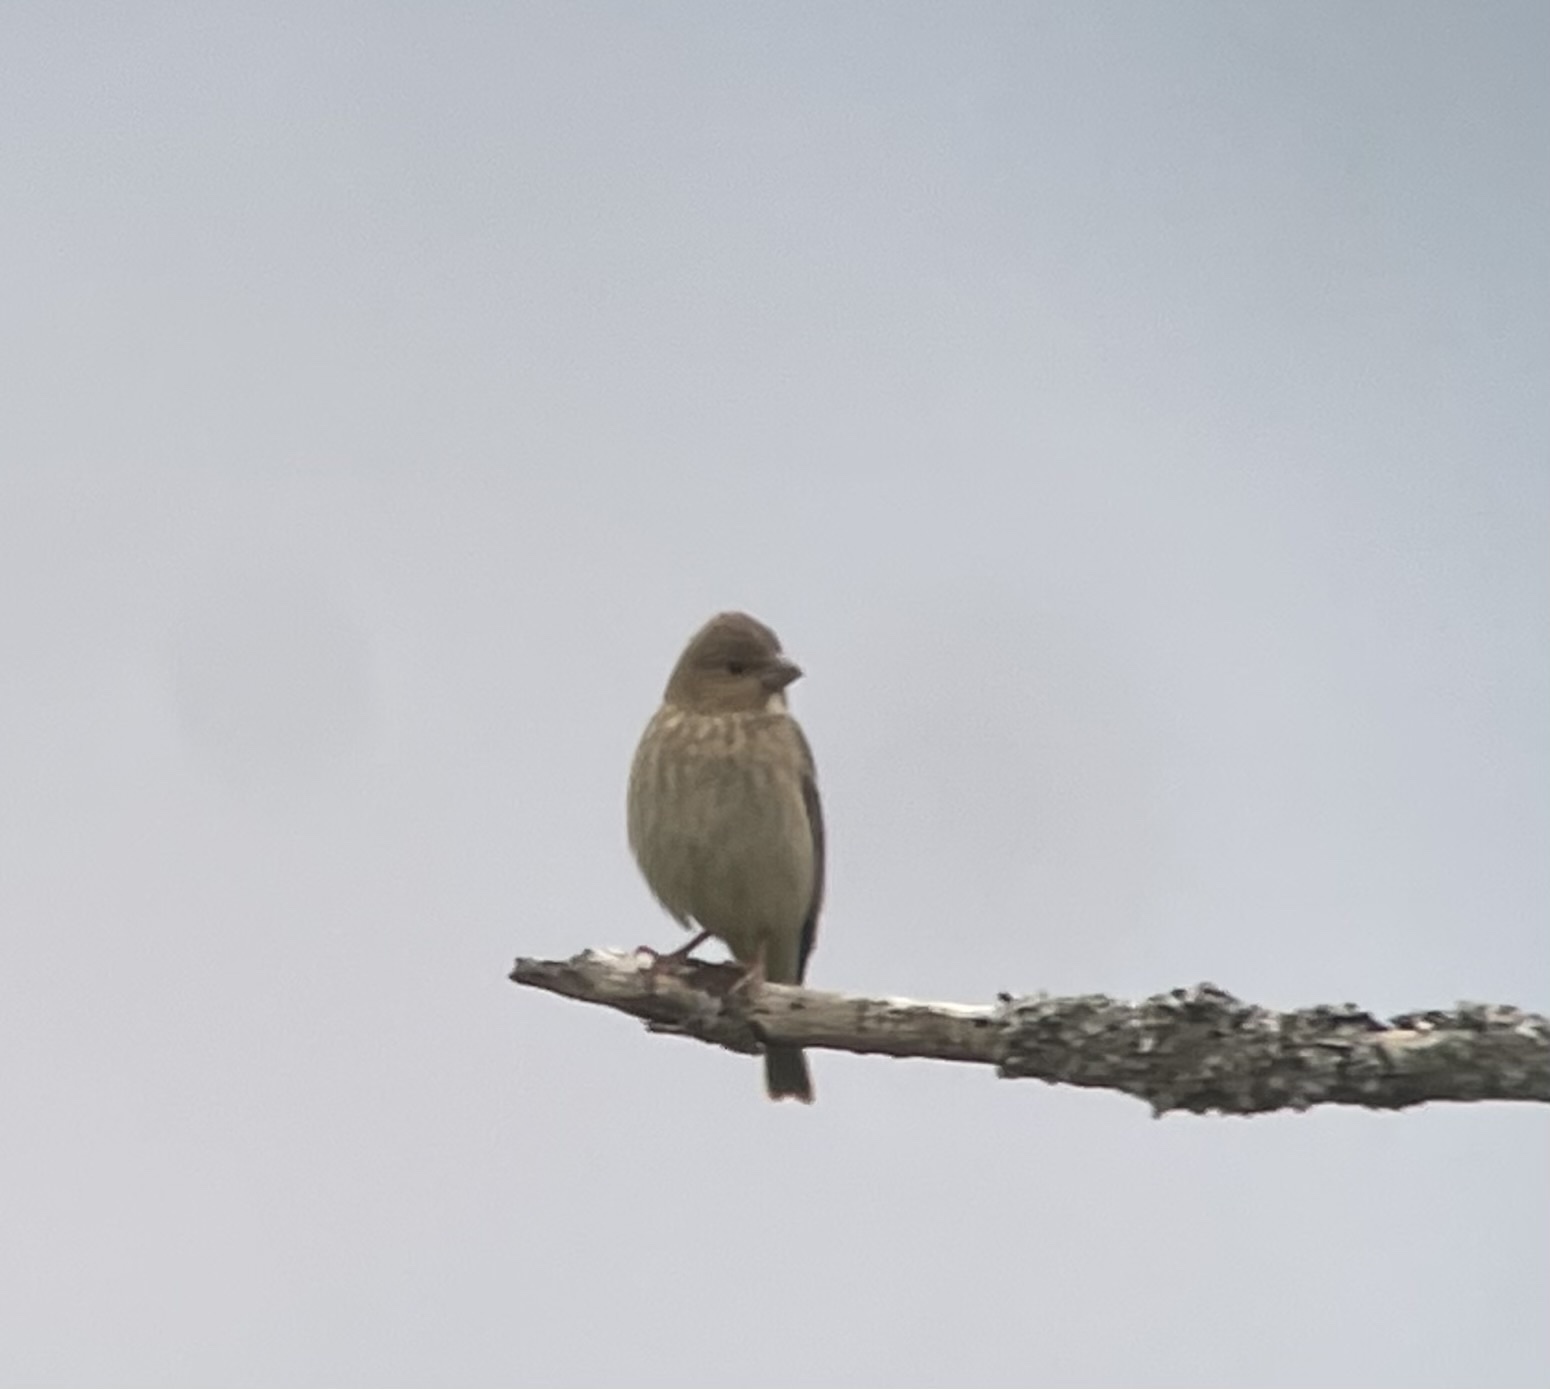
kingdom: Animalia
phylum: Chordata
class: Aves
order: Passeriformes
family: Fringillidae
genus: Carpodacus
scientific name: Carpodacus erythrinus
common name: Common rosefinch
